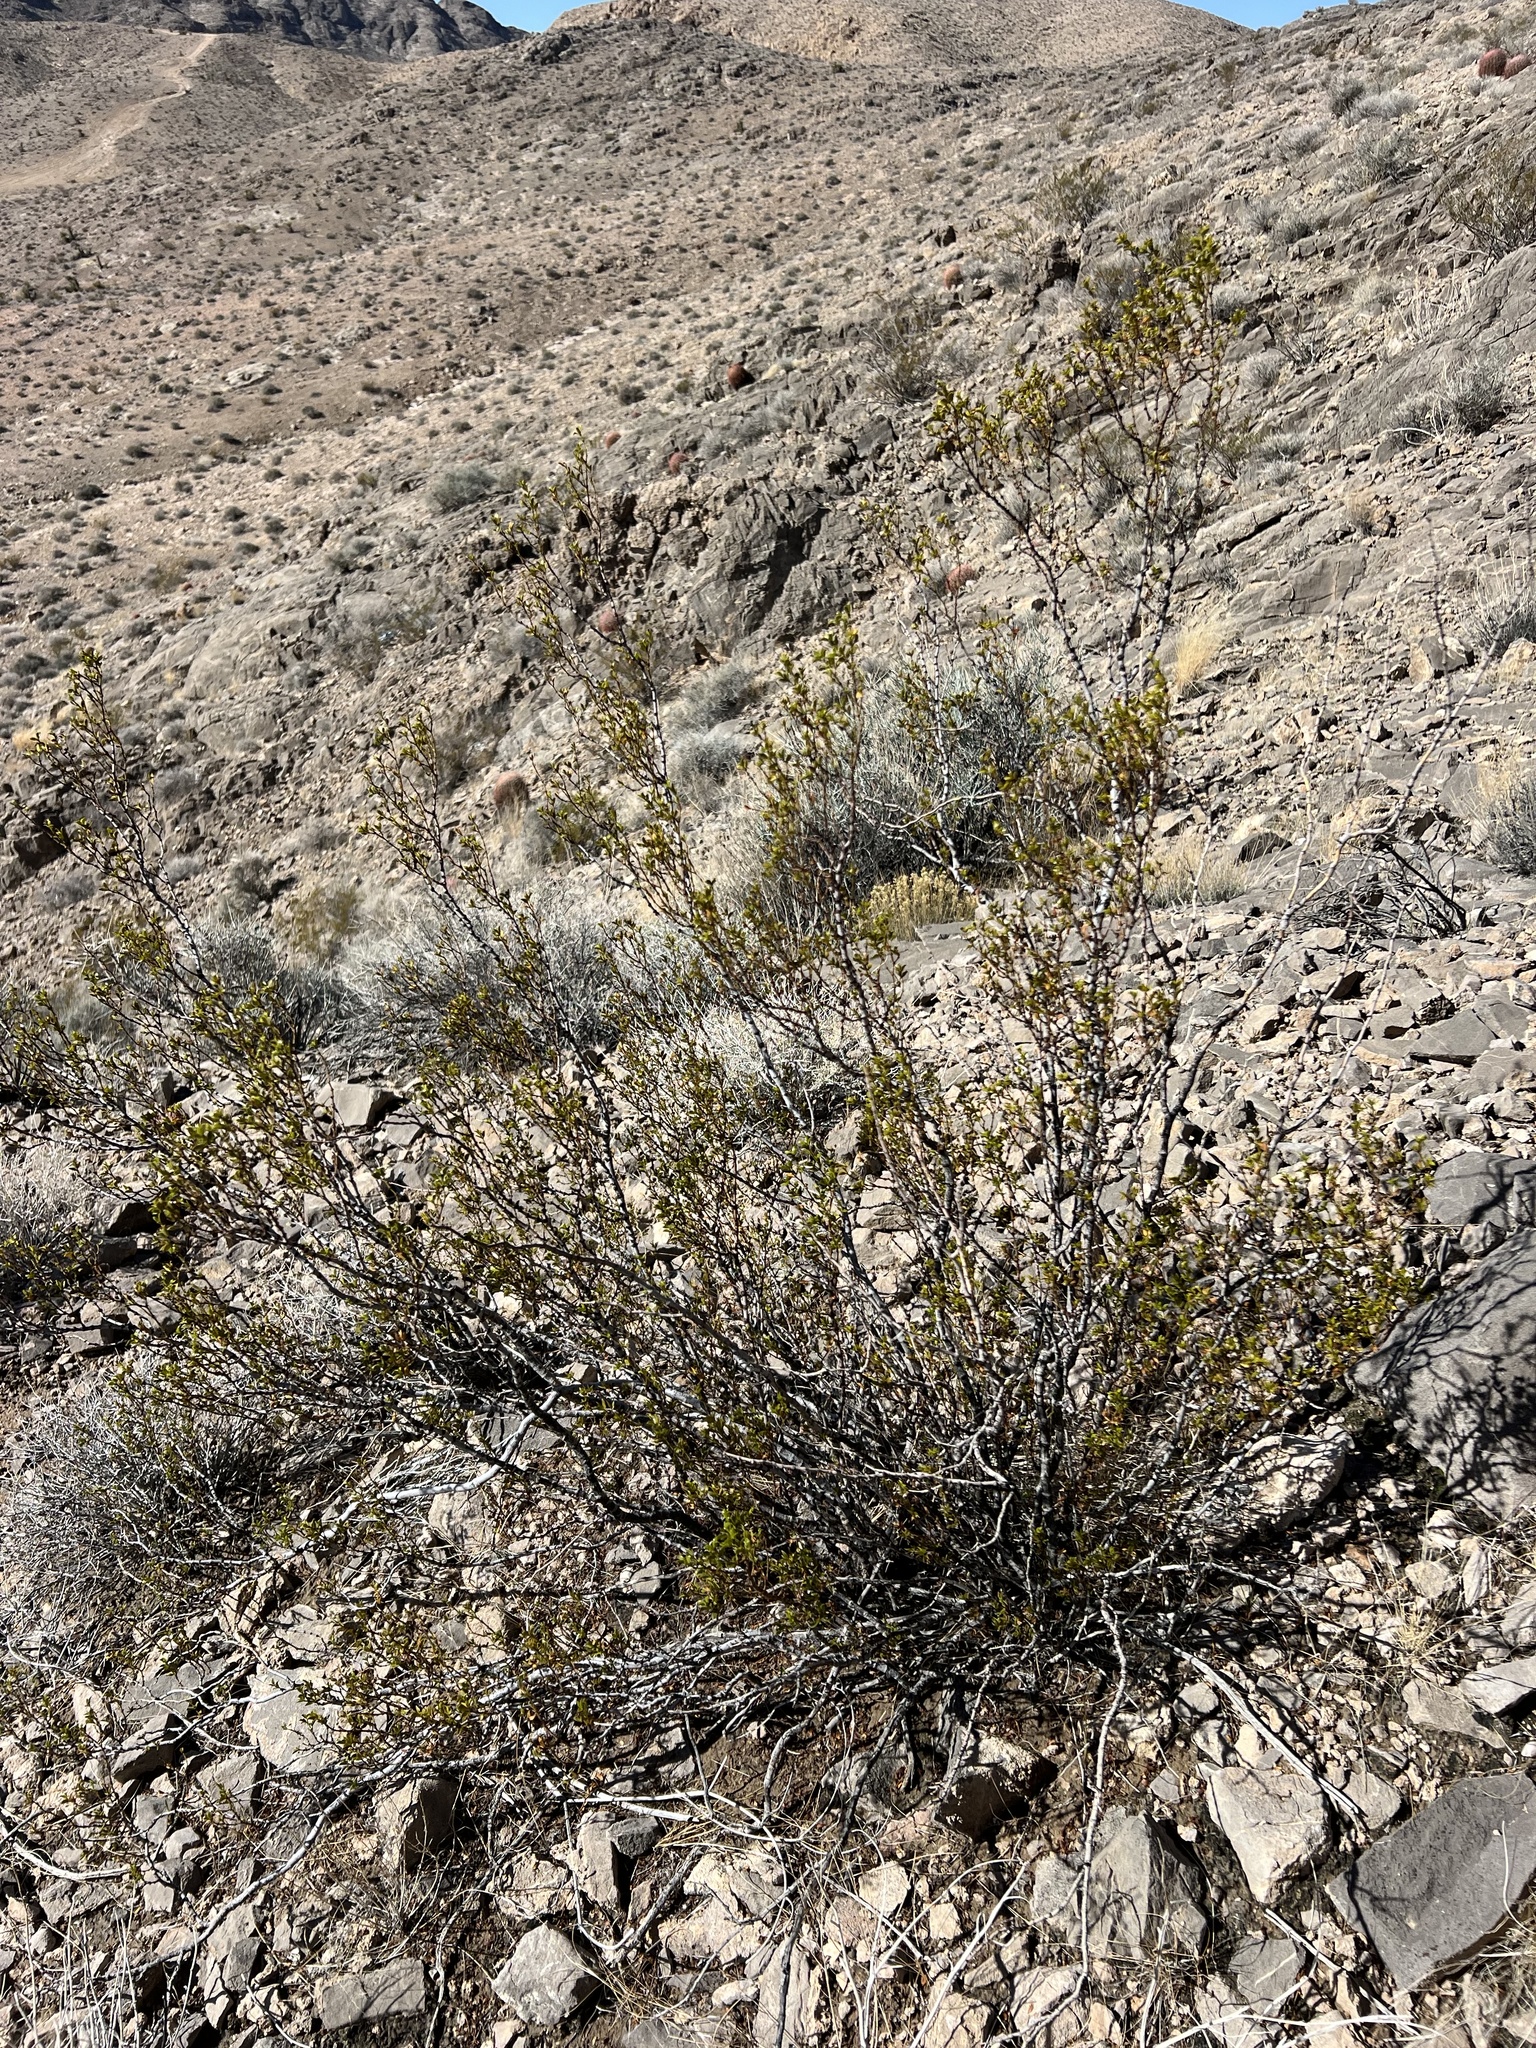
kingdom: Plantae
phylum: Tracheophyta
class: Magnoliopsida
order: Zygophyllales
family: Zygophyllaceae
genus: Larrea
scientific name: Larrea tridentata
